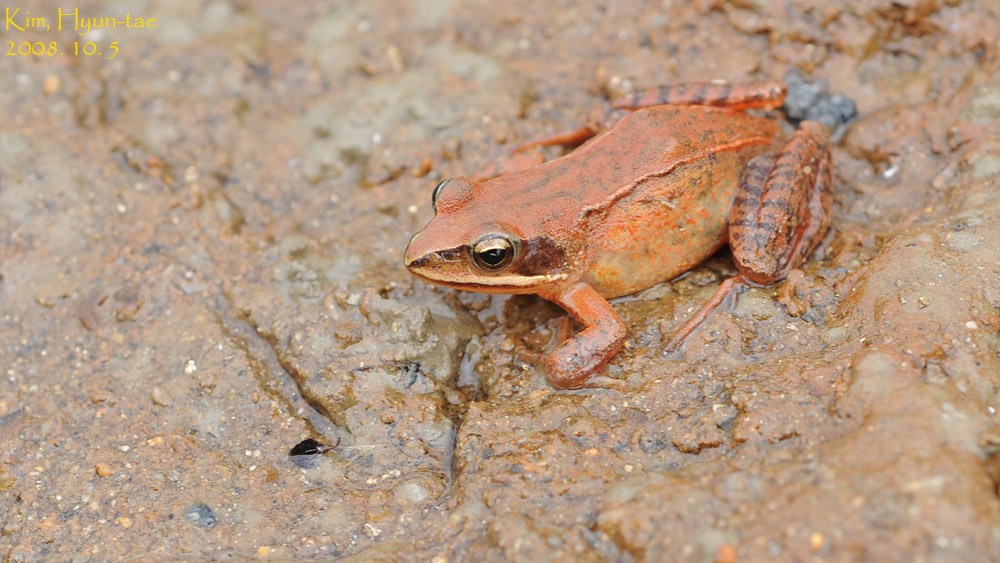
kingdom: Animalia
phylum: Chordata
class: Amphibia
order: Anura
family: Ranidae
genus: Rana
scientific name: Rana coreana
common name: Korean brown frog
